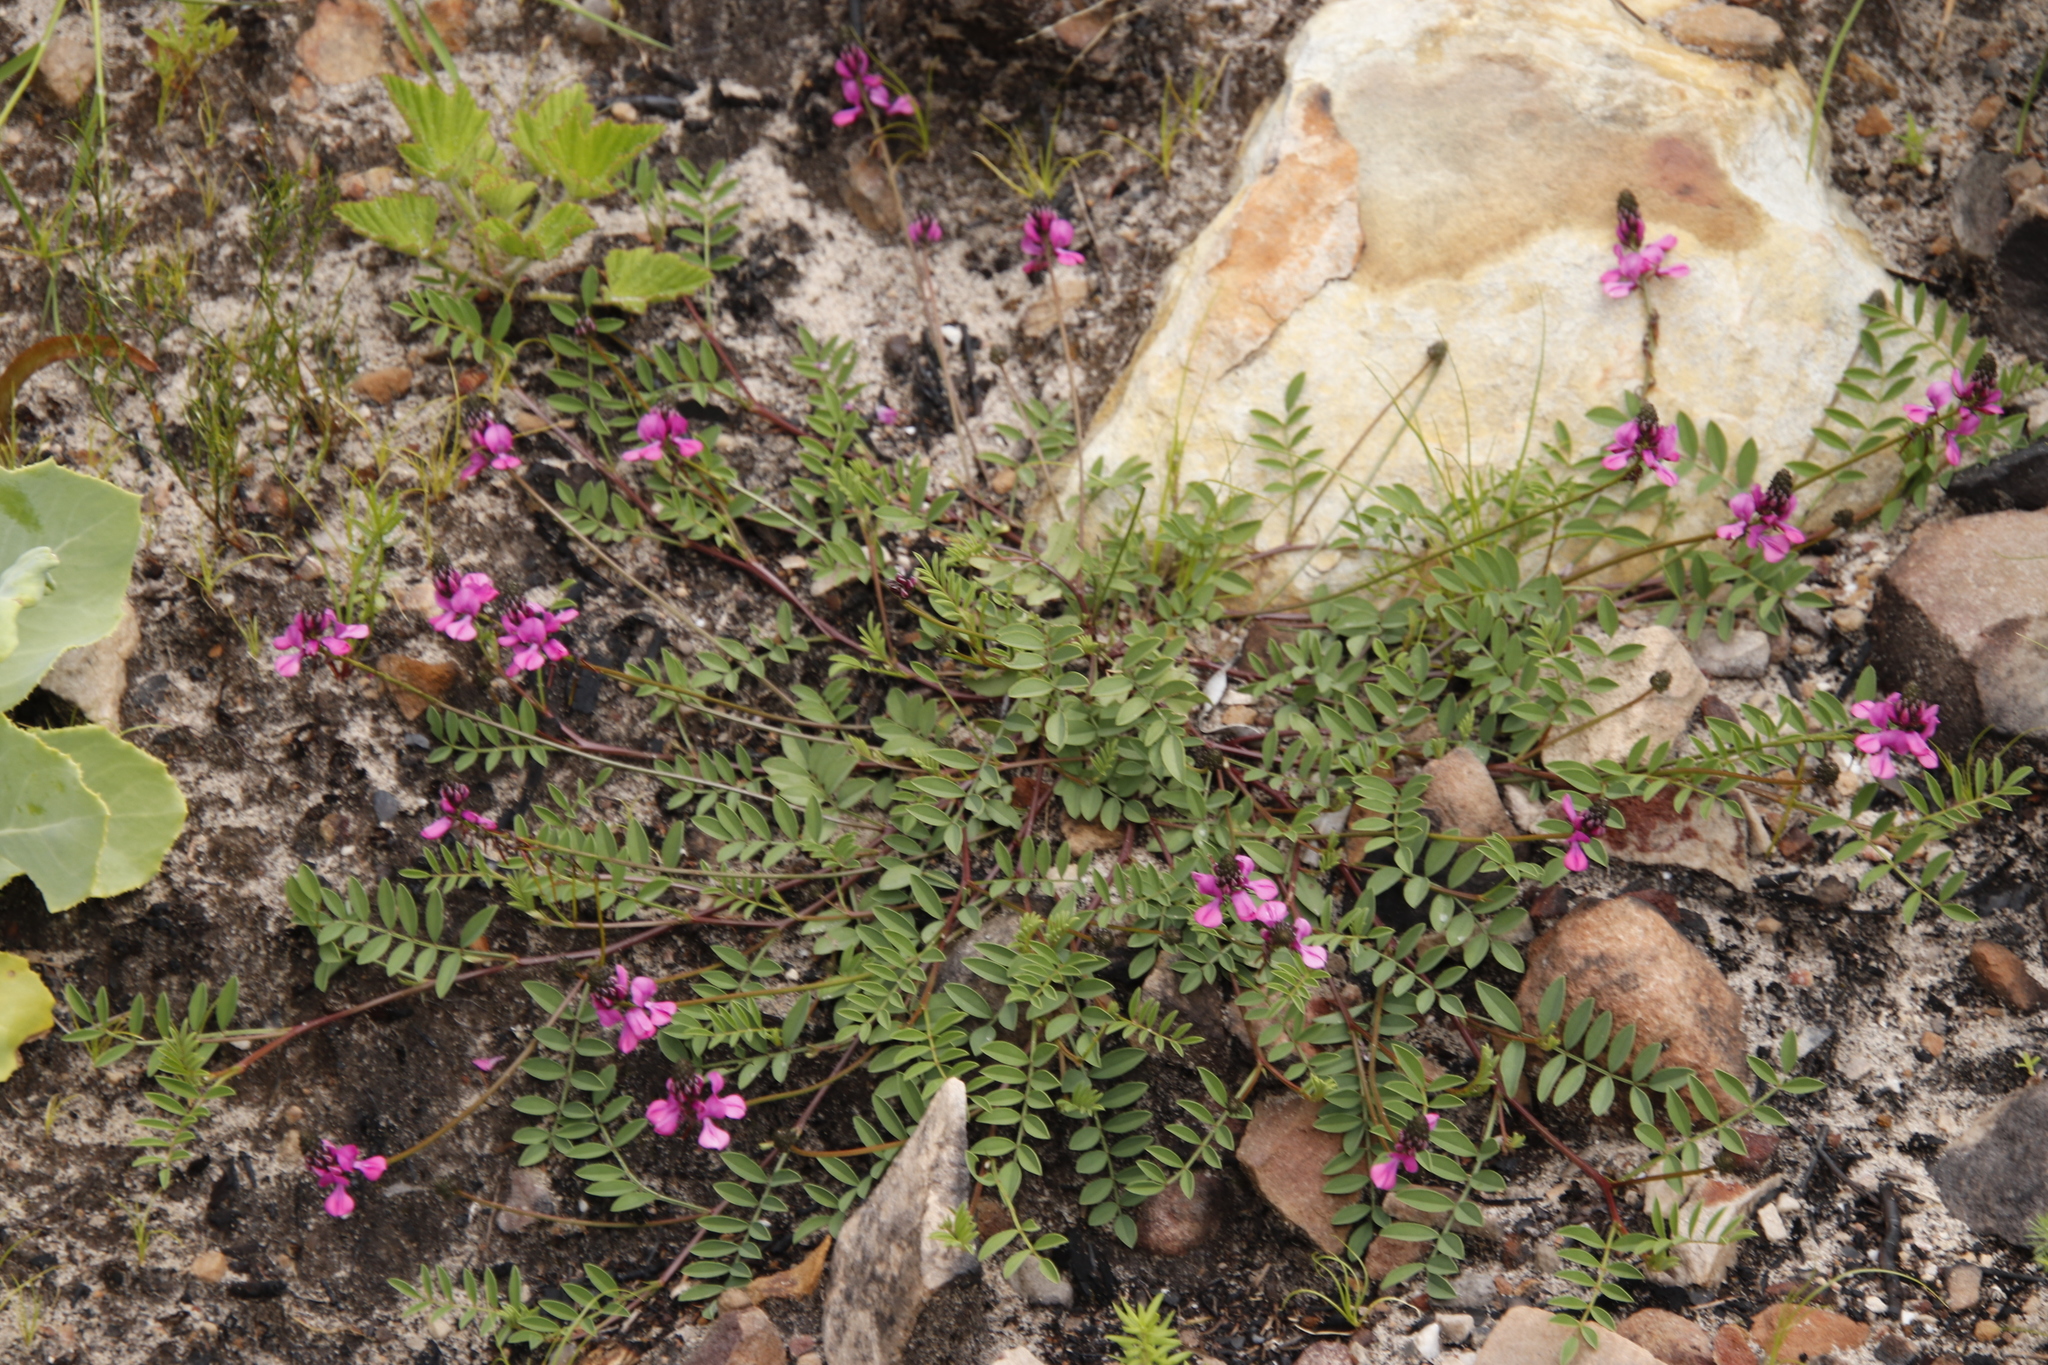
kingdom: Plantae
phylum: Tracheophyta
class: Magnoliopsida
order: Fabales
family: Fabaceae
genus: Indigofera
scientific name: Indigofera capillaris
